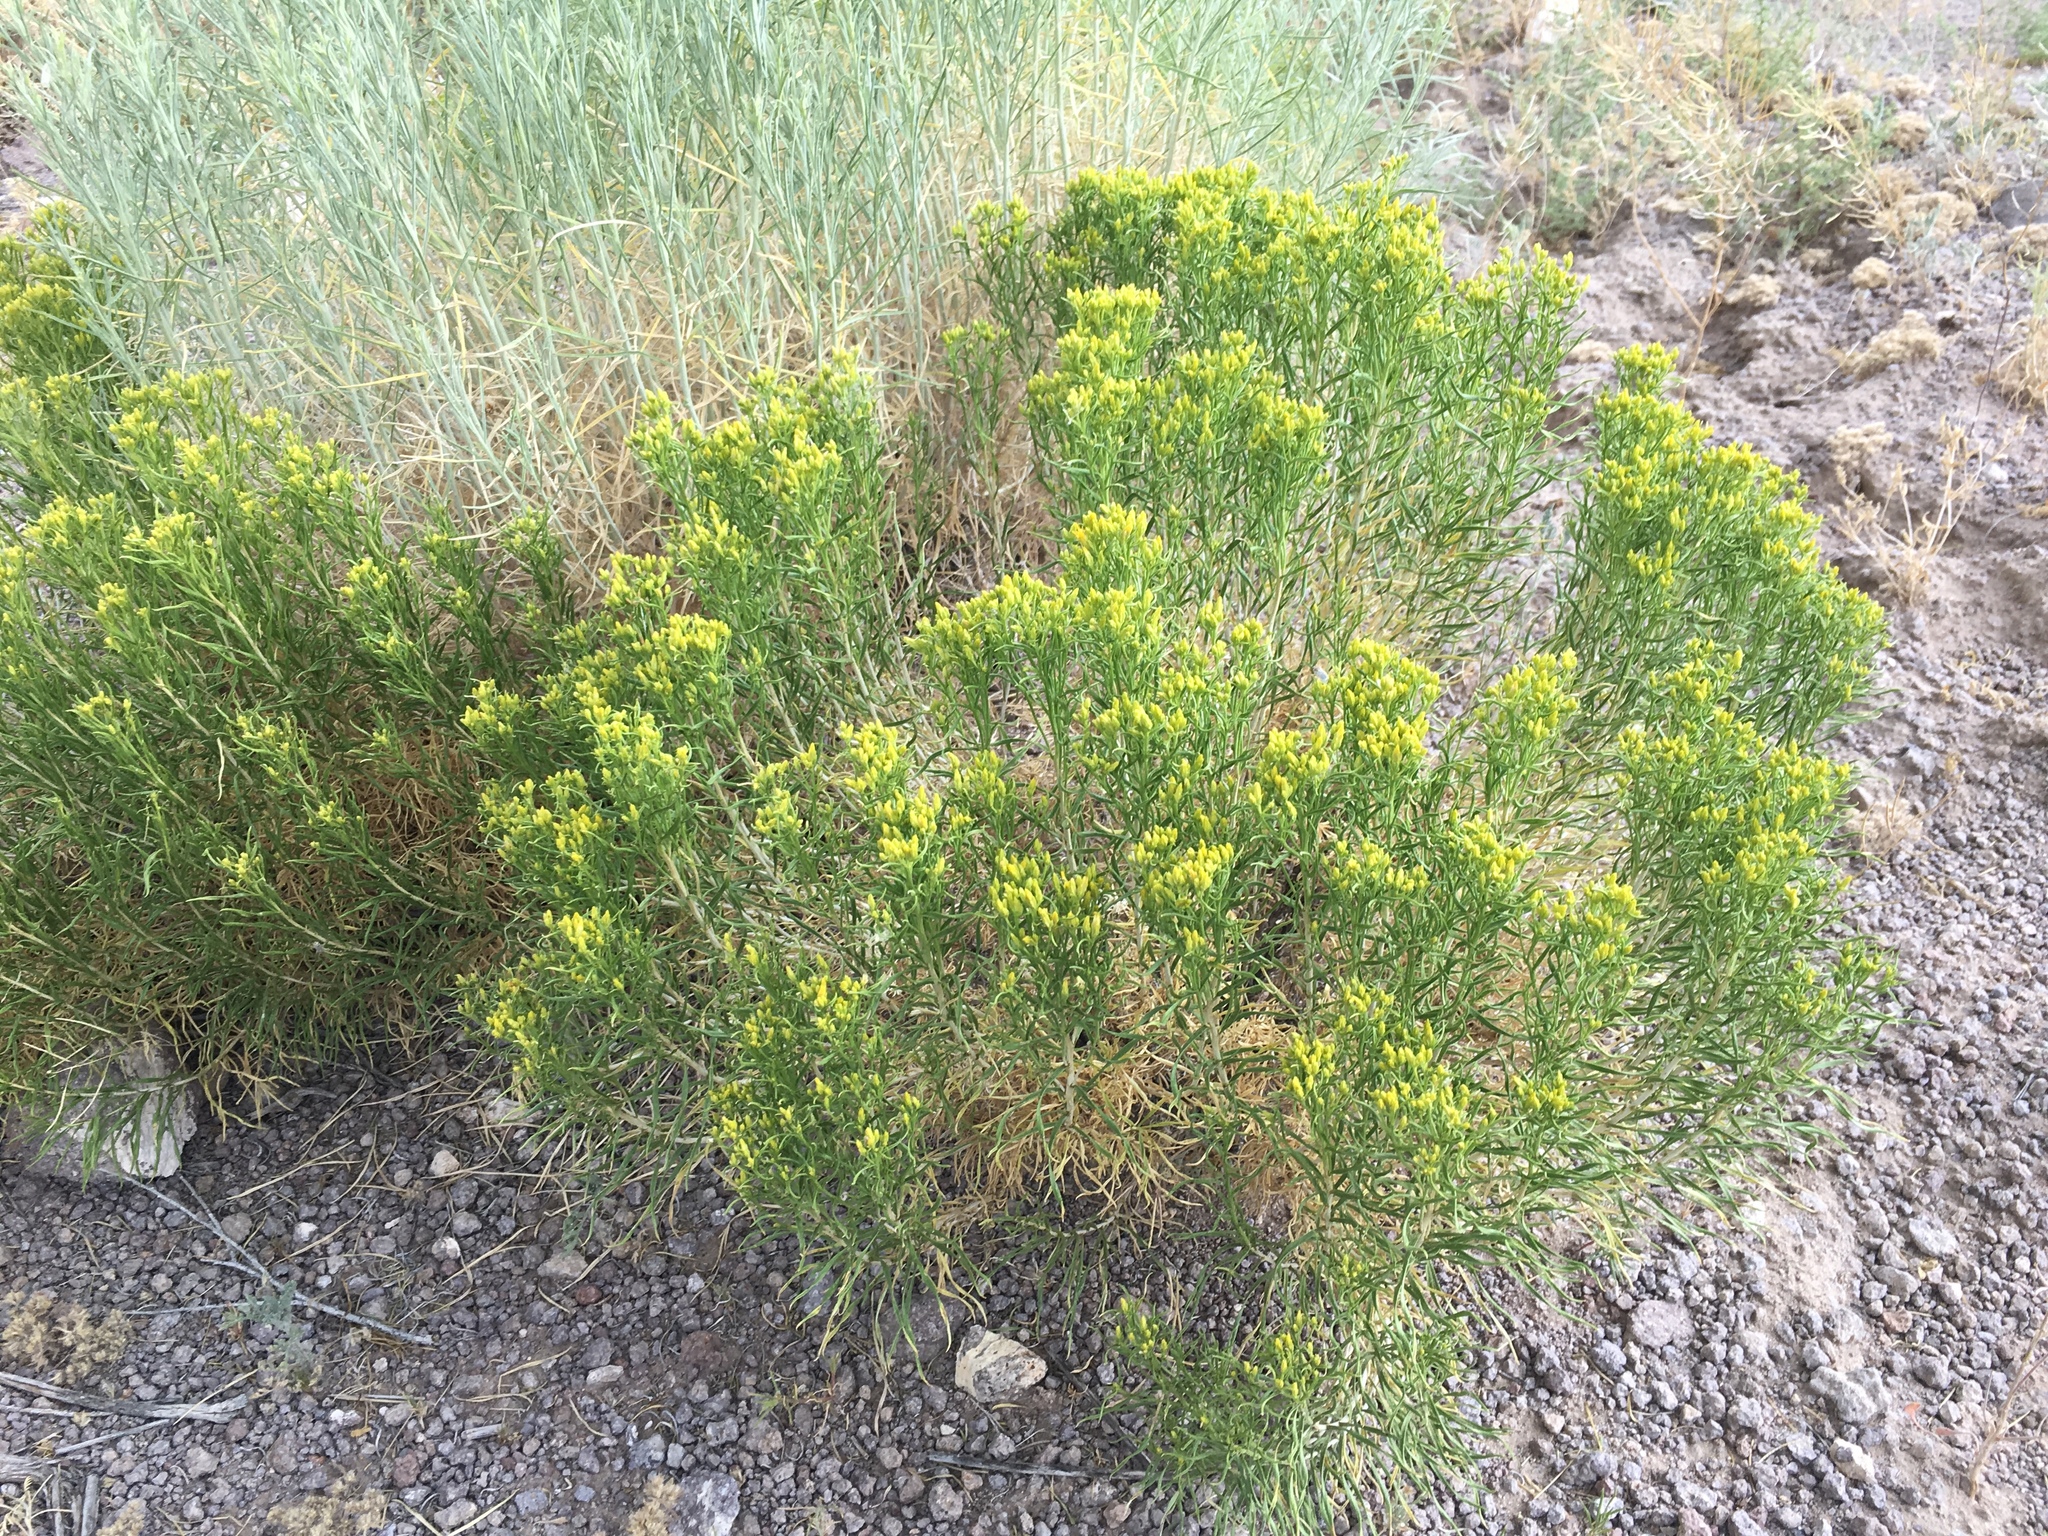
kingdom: Plantae
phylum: Tracheophyta
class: Magnoliopsida
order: Asterales
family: Asteraceae
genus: Chrysothamnus
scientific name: Chrysothamnus viscidiflorus
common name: Yellow rabbitbrush
